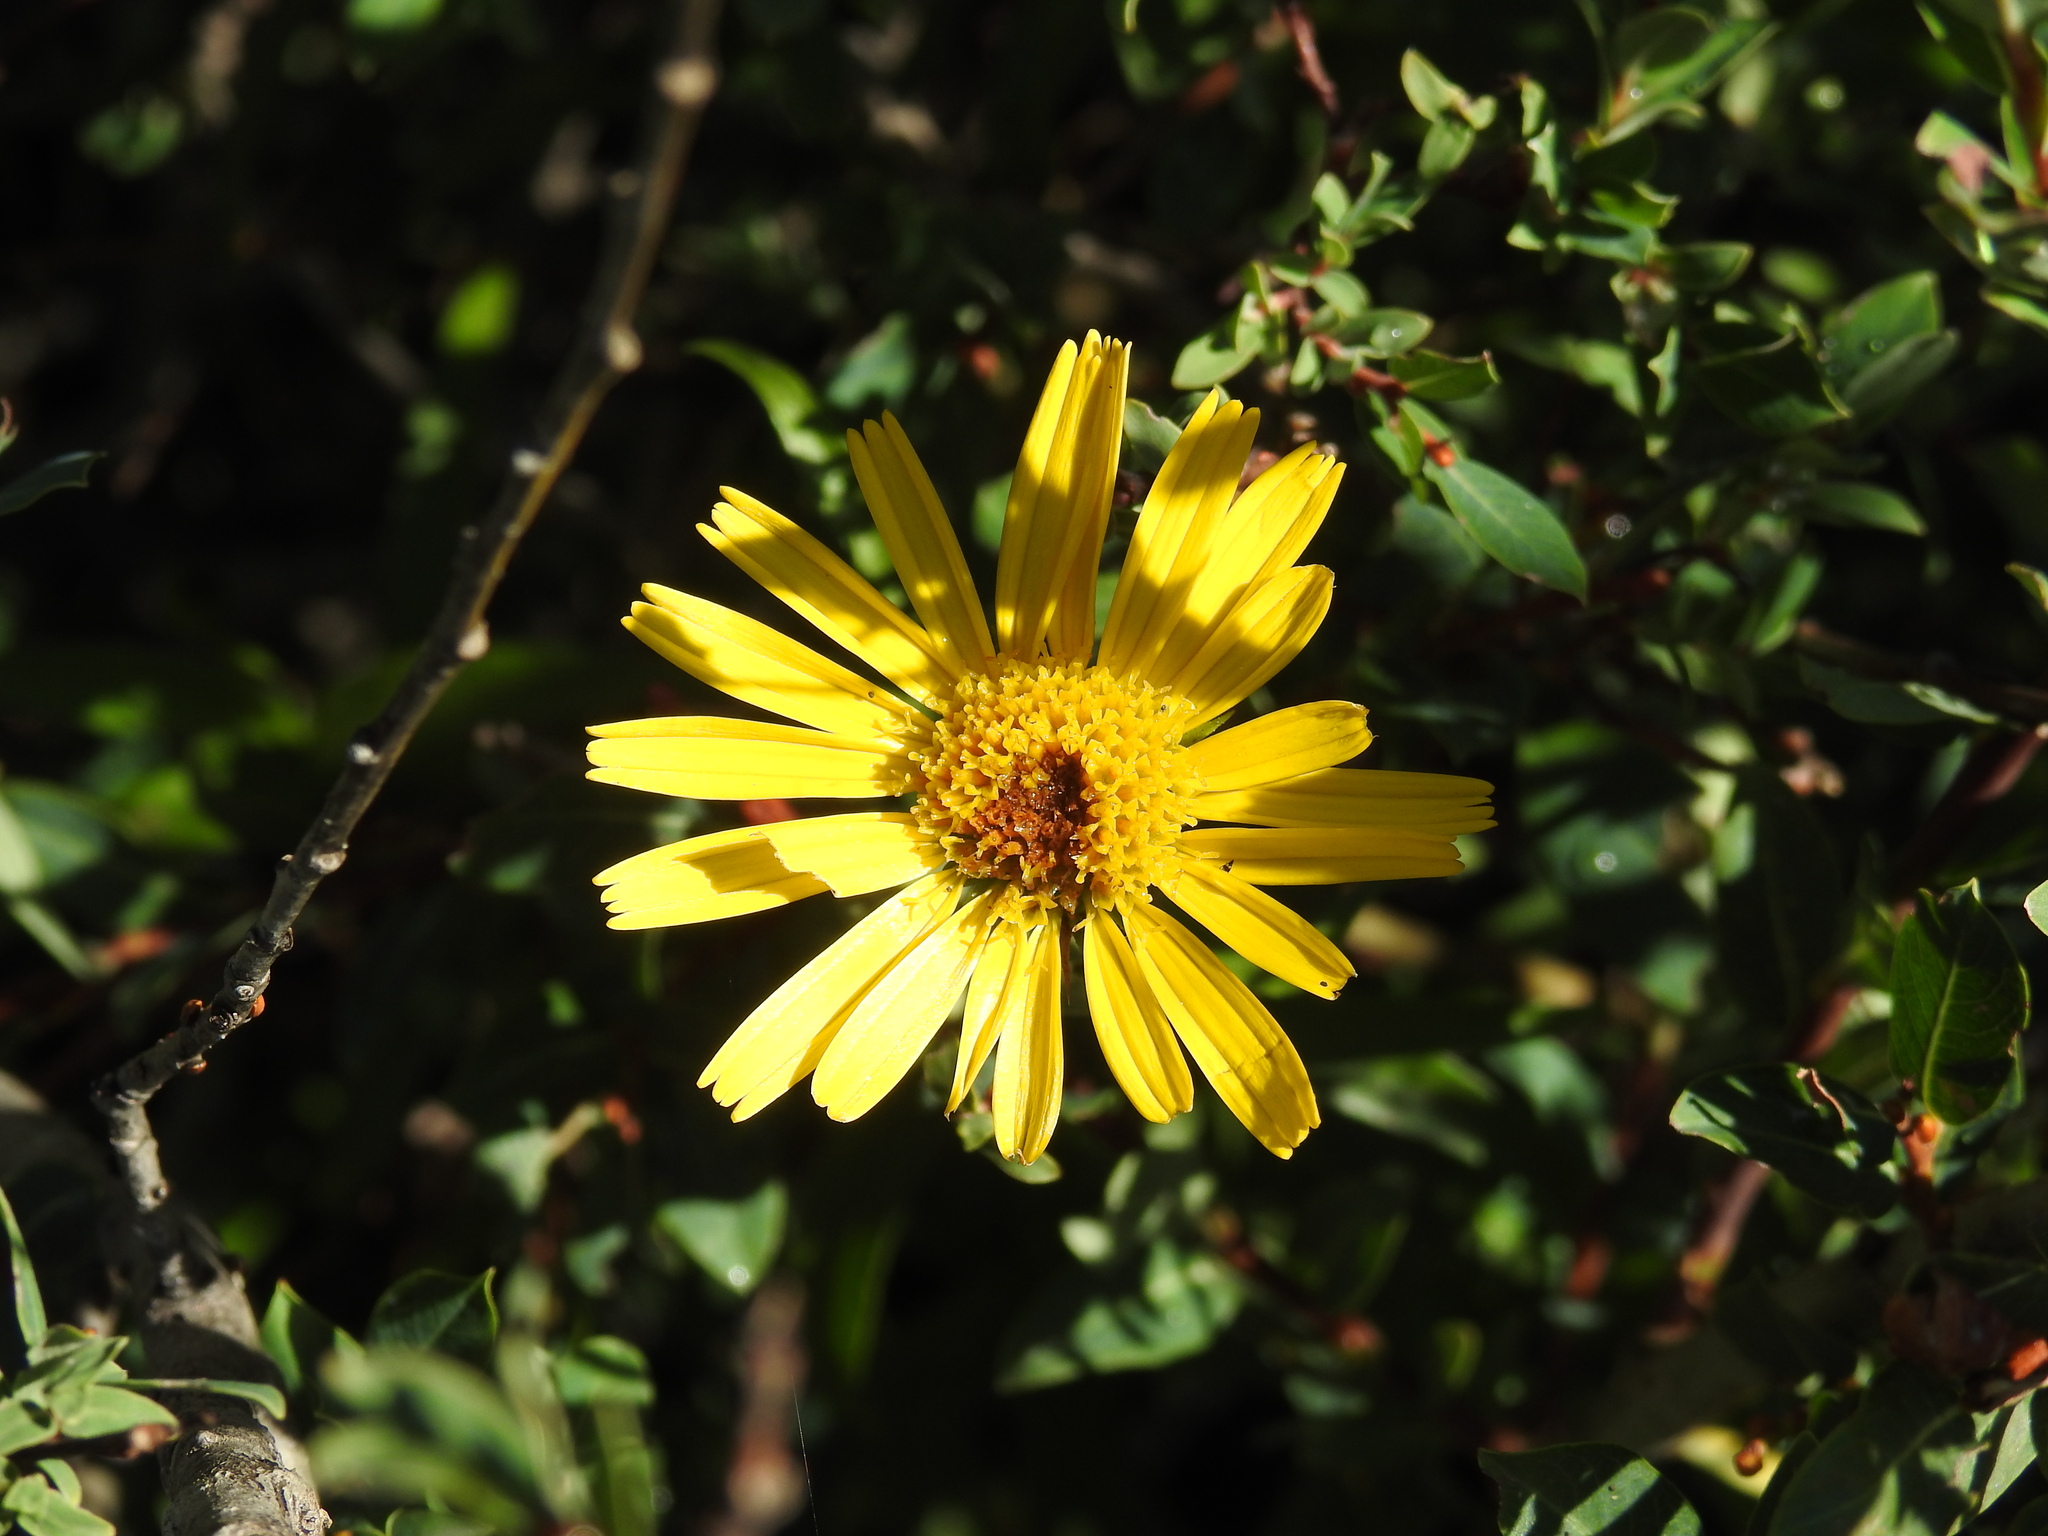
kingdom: Plantae
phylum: Tracheophyta
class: Magnoliopsida
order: Asterales
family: Asteraceae
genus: Buphthalmum
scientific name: Buphthalmum salicifolium
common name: Willow-leaved yellow-oxeye
